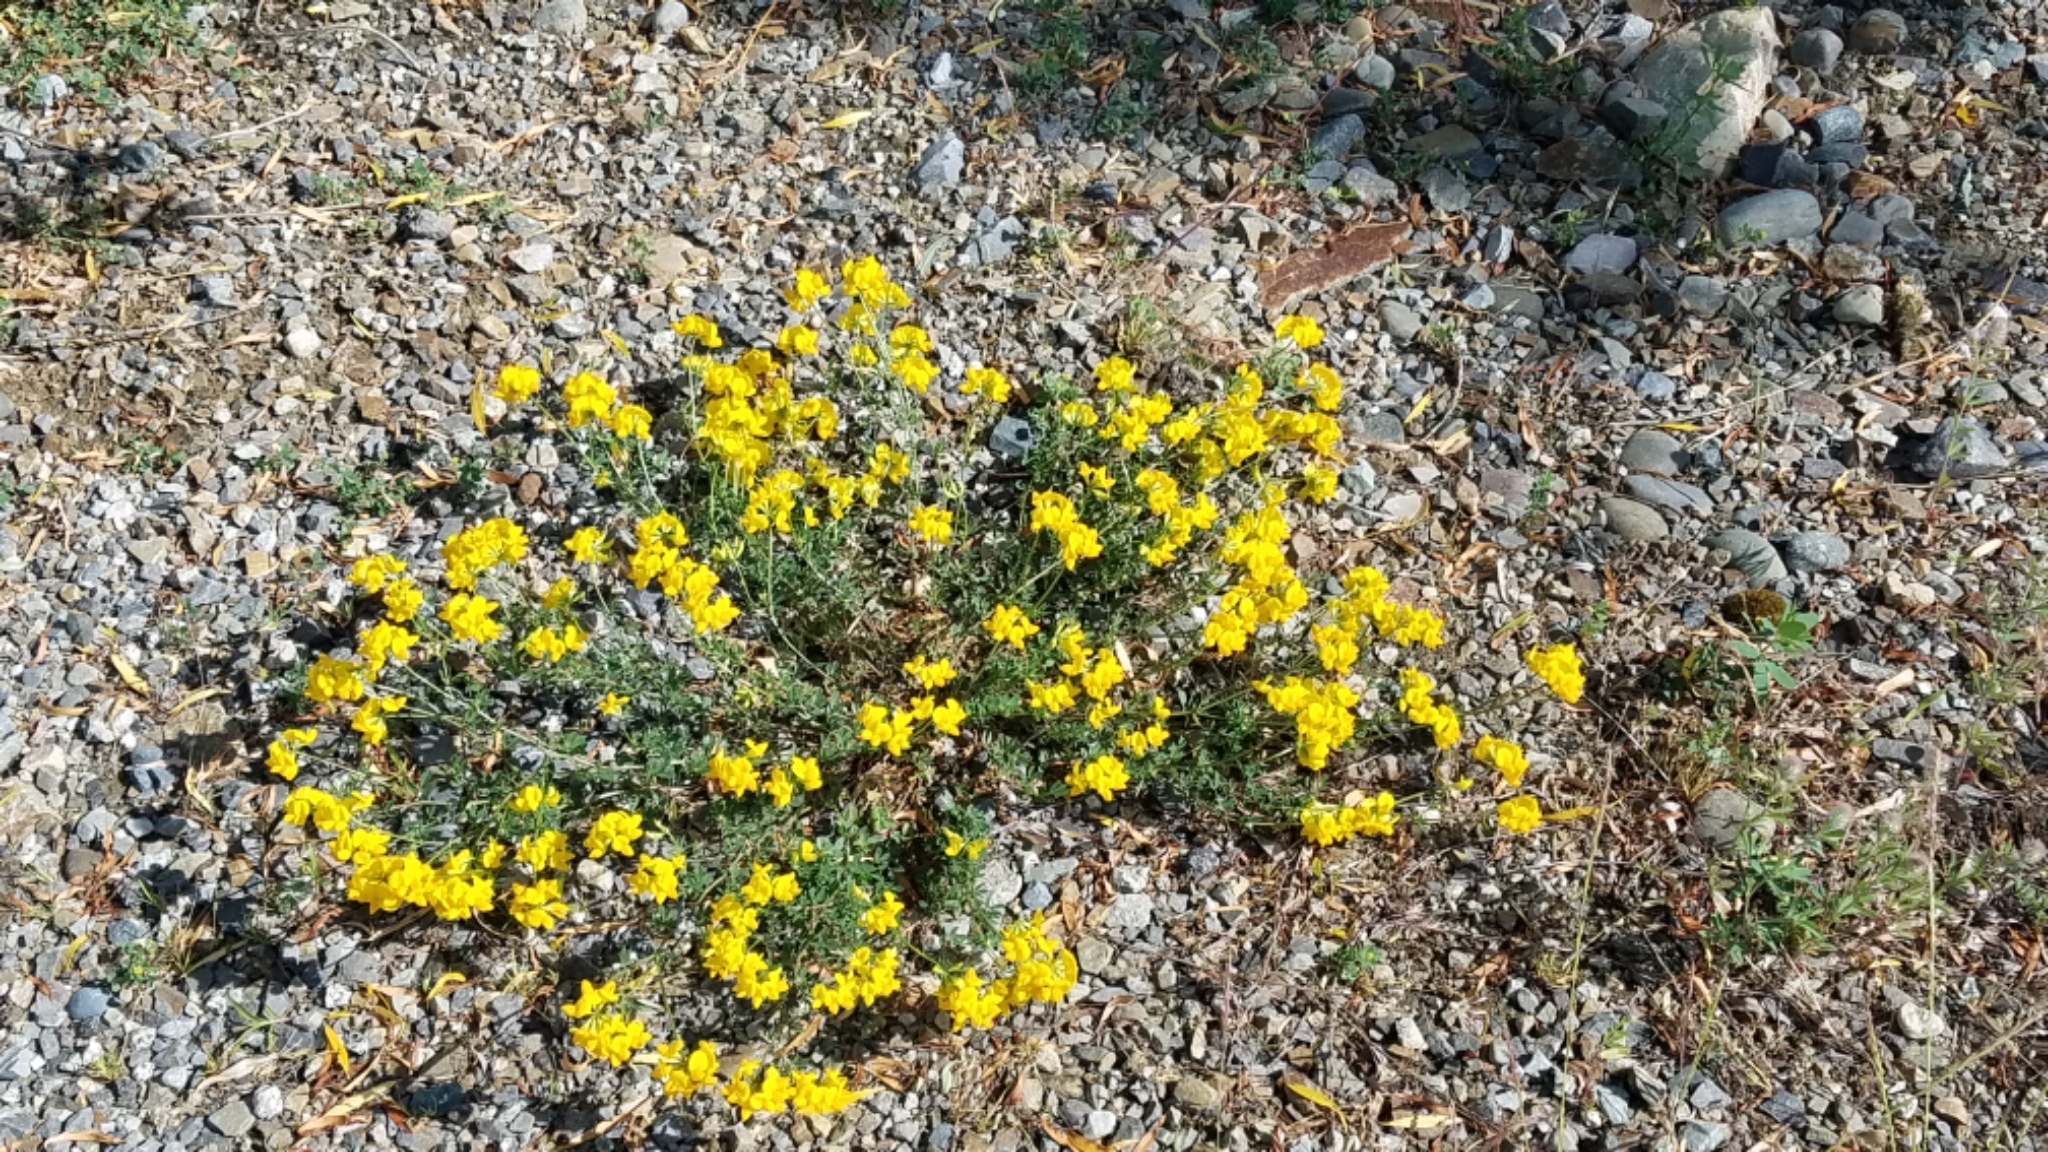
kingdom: Plantae
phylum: Tracheophyta
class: Magnoliopsida
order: Fabales
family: Fabaceae
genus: Lotus
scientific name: Lotus corniculatus
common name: Common bird's-foot-trefoil
